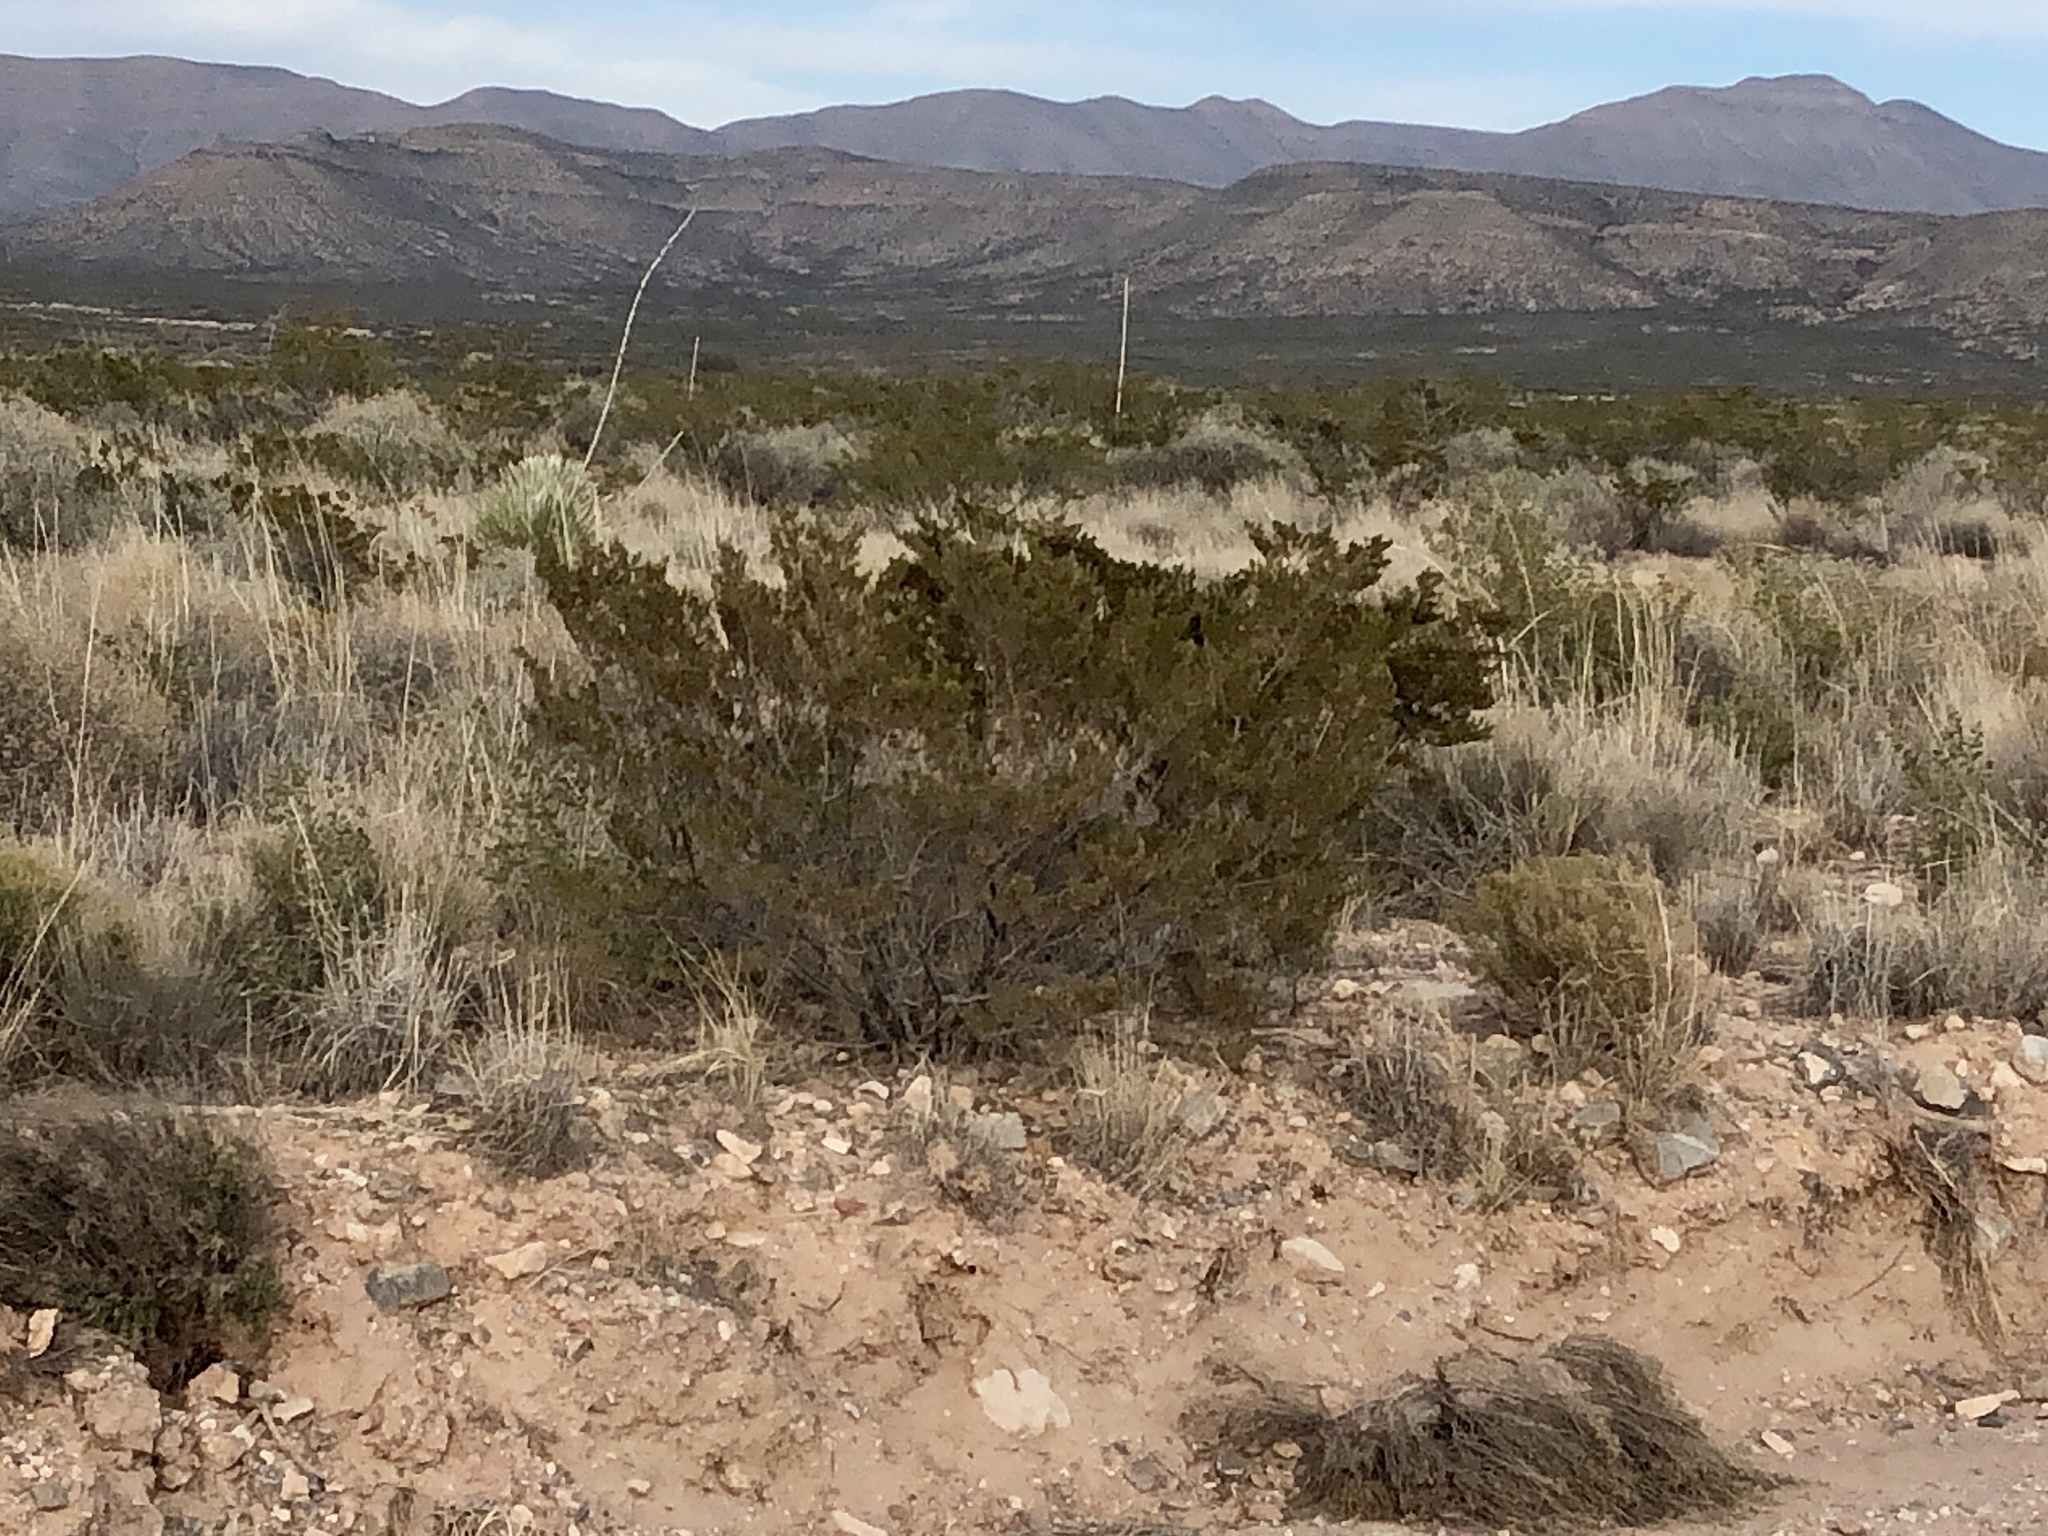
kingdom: Plantae
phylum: Tracheophyta
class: Magnoliopsida
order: Zygophyllales
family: Zygophyllaceae
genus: Larrea
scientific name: Larrea tridentata
